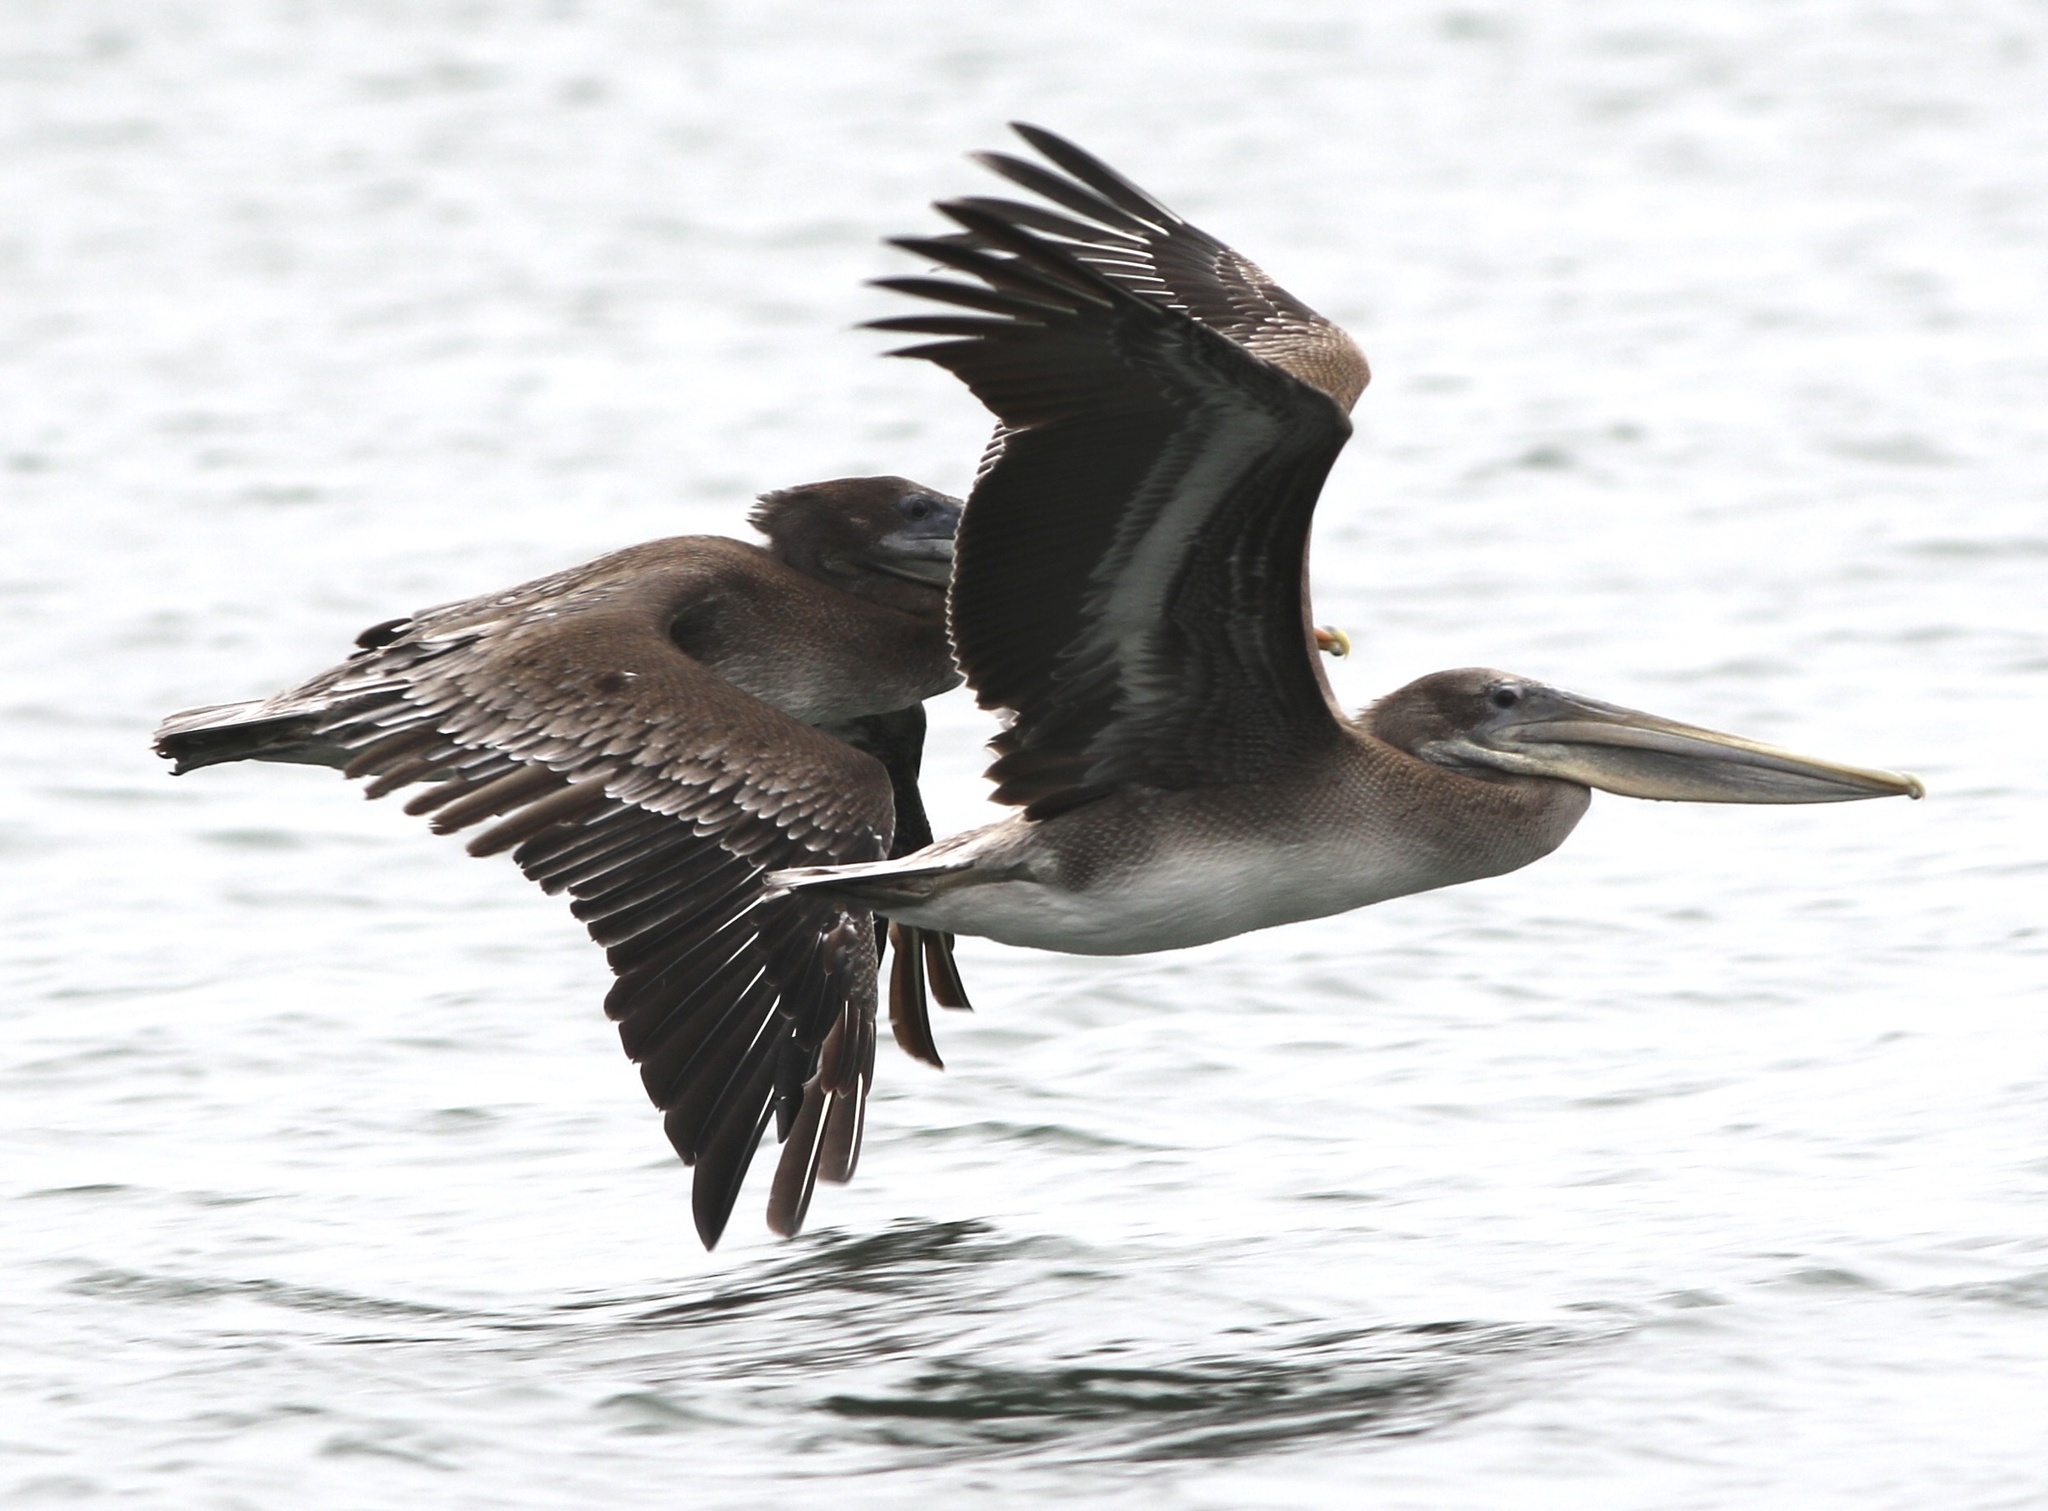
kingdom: Animalia
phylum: Chordata
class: Aves
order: Pelecaniformes
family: Pelecanidae
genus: Pelecanus
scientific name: Pelecanus occidentalis
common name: Brown pelican
